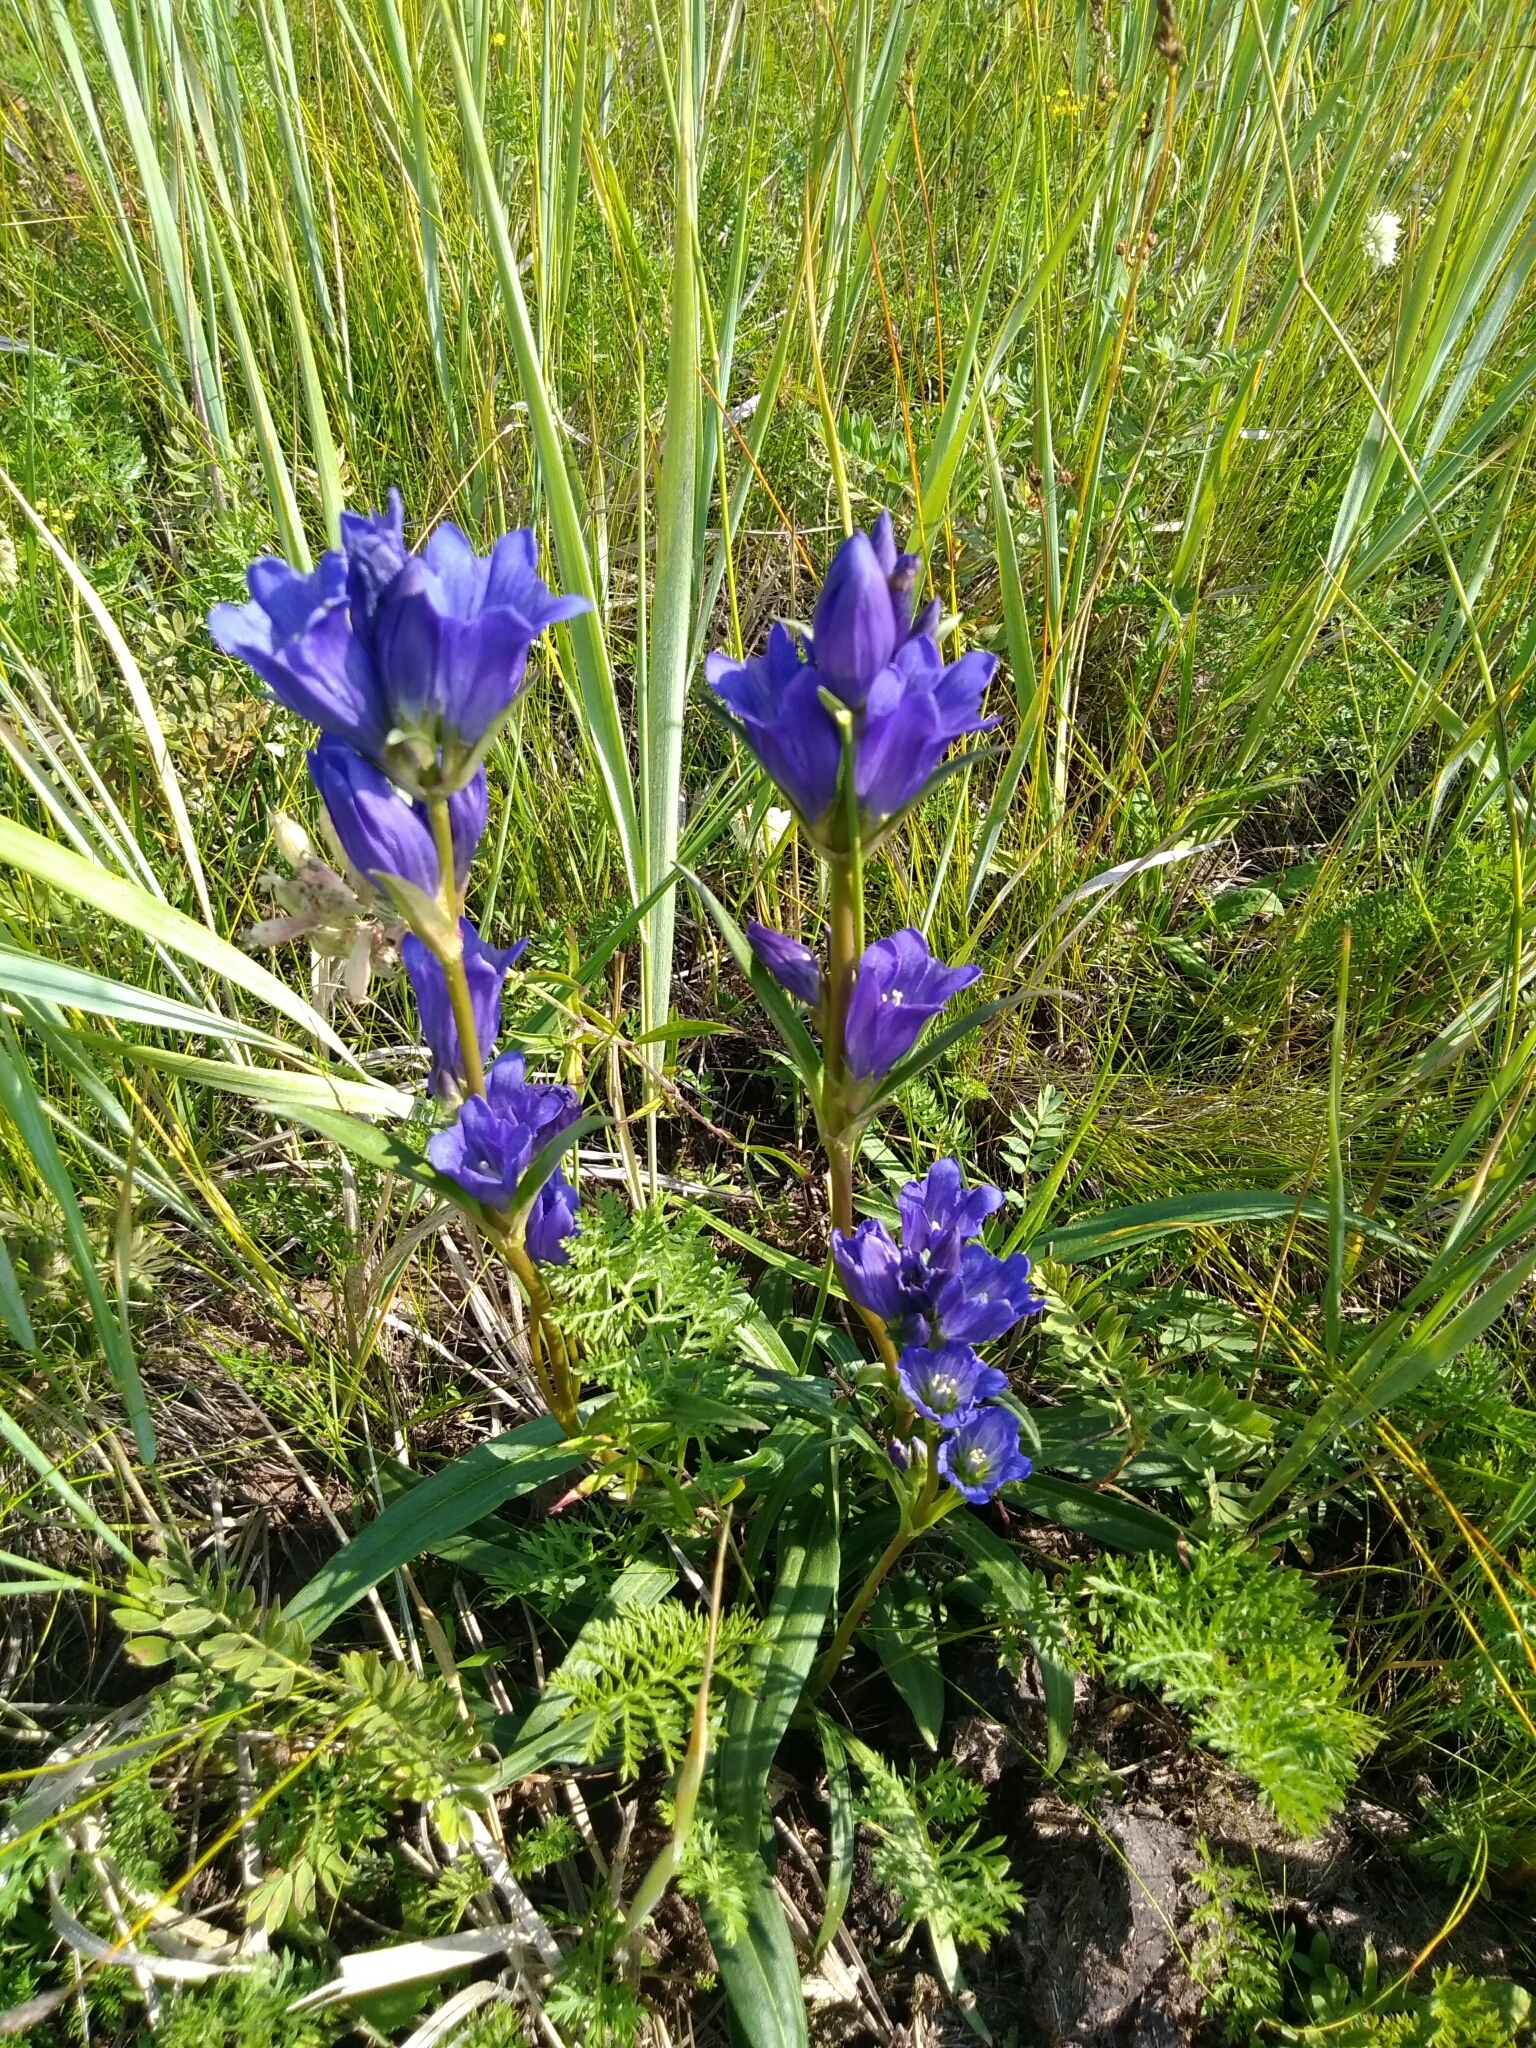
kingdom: Plantae
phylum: Tracheophyta
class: Magnoliopsida
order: Gentianales
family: Gentianaceae
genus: Gentiana
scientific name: Gentiana decumbens
